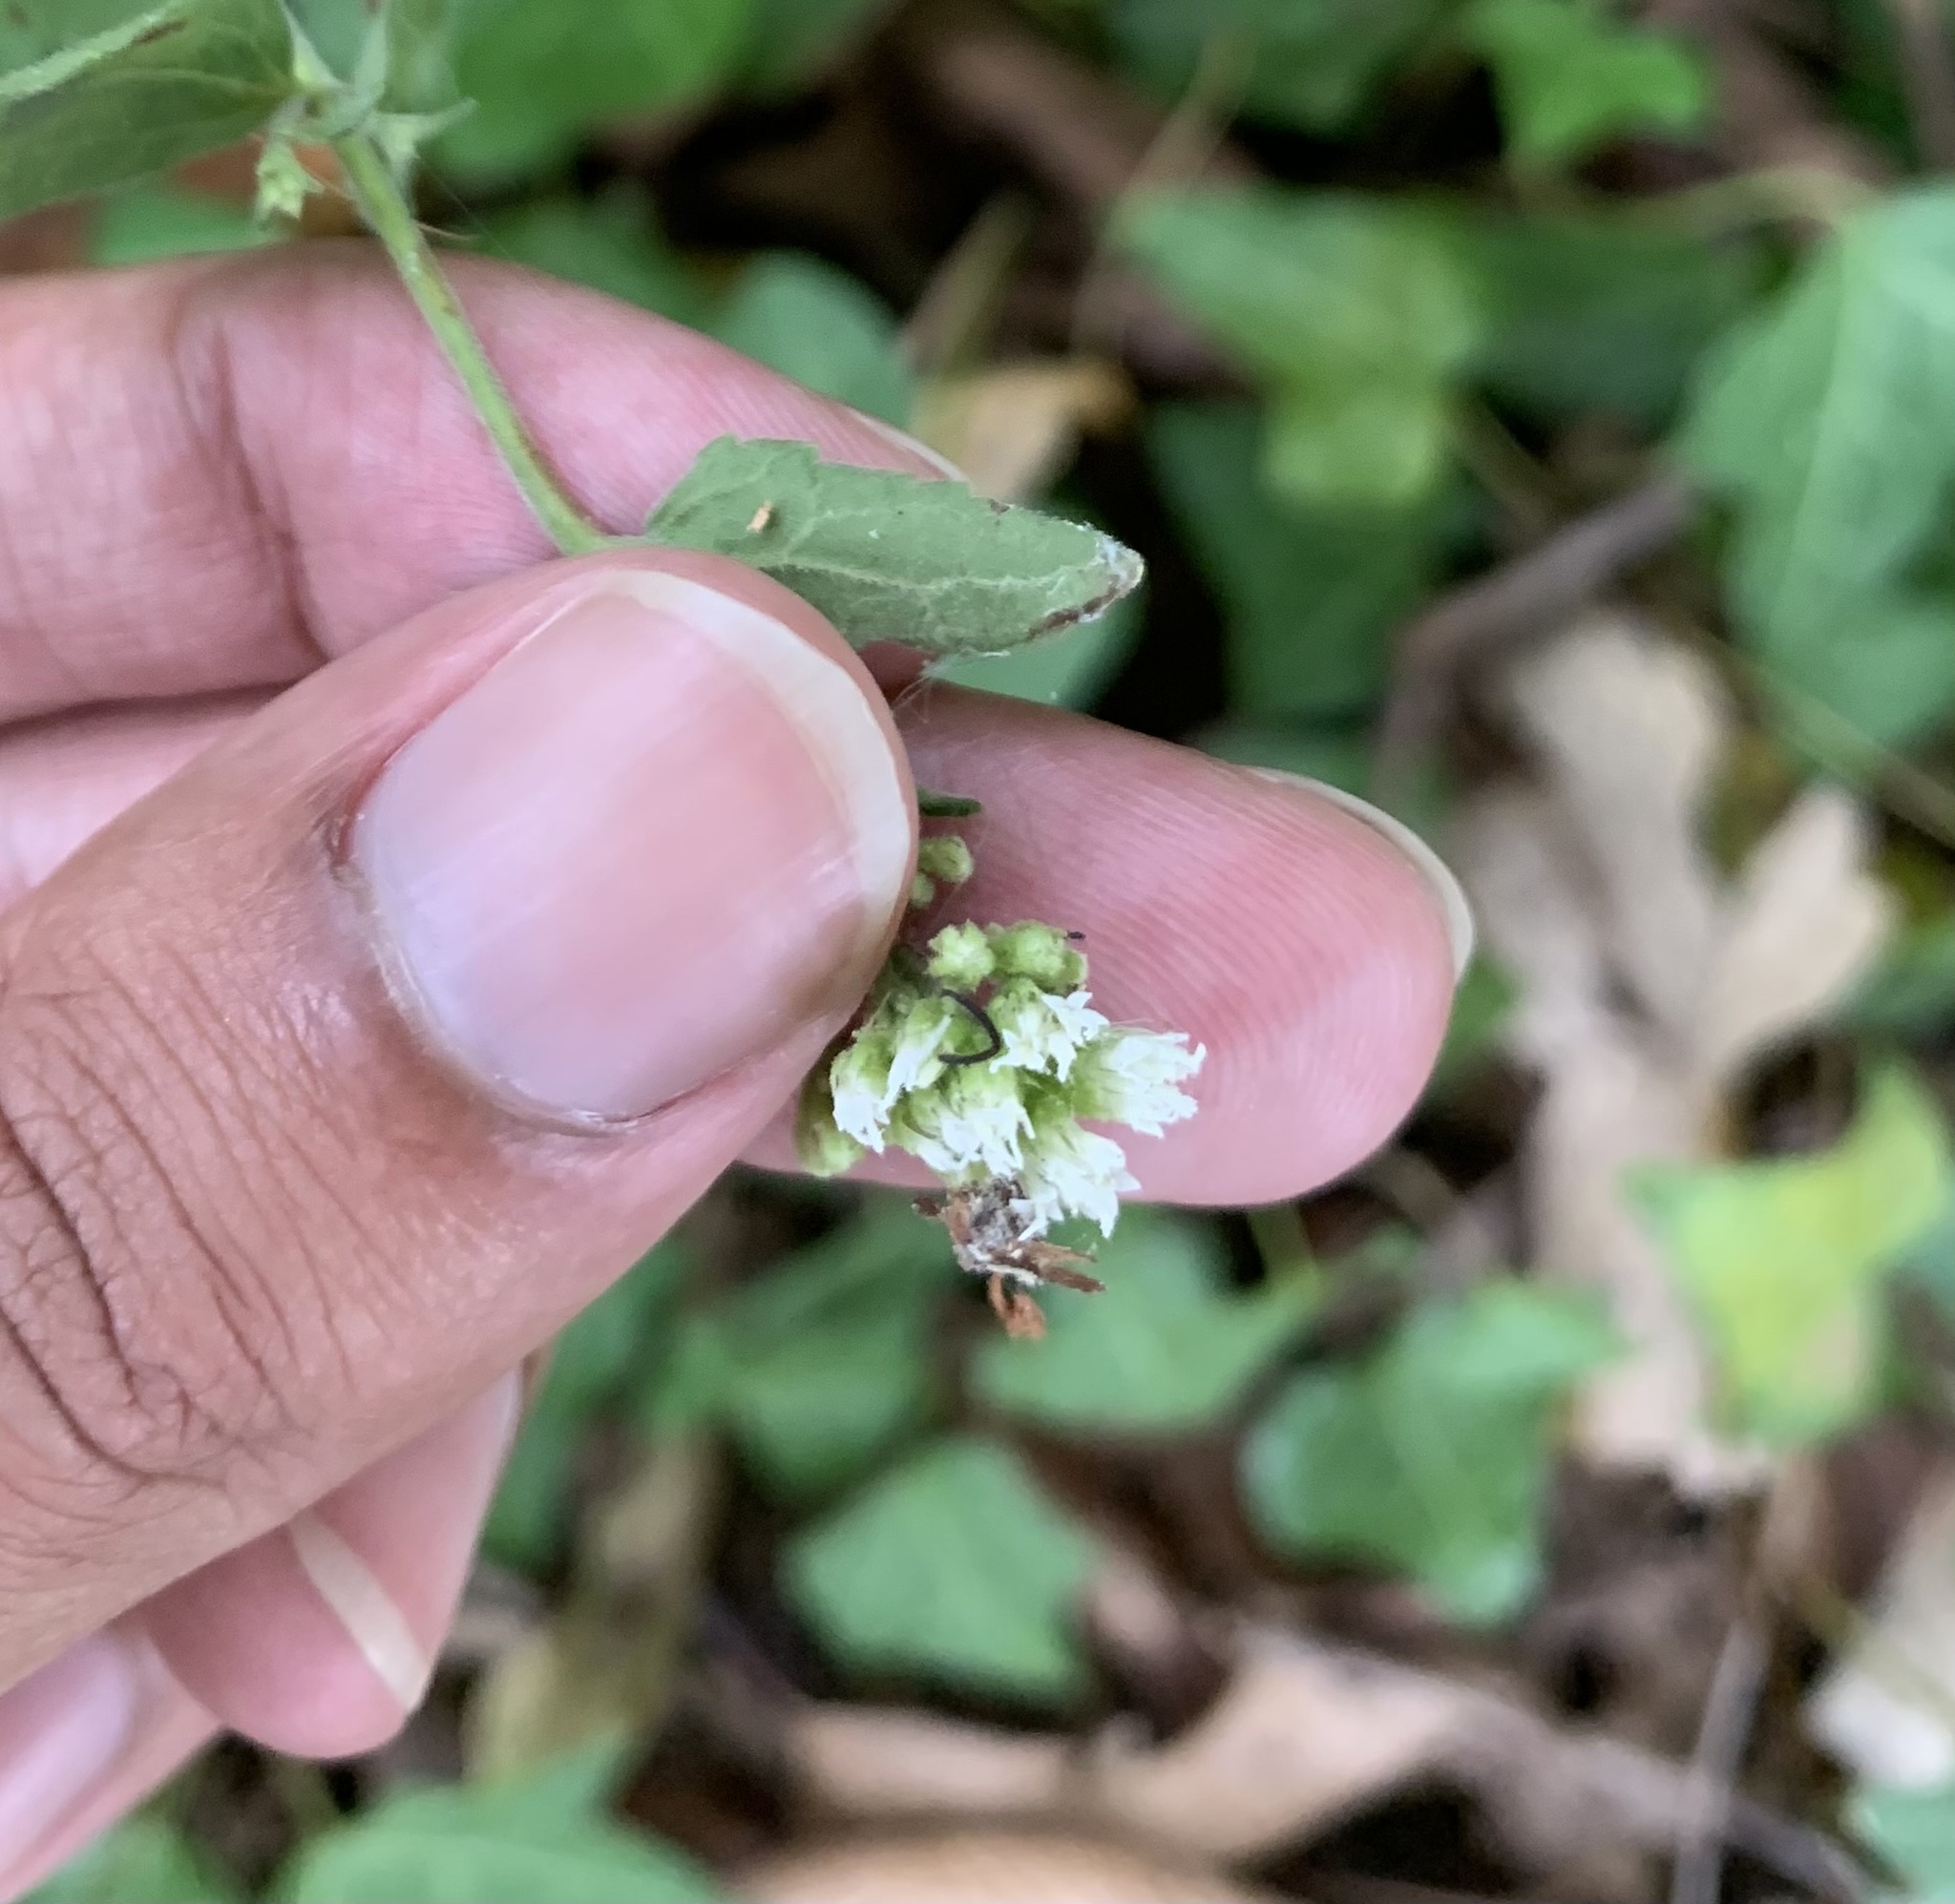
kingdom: Plantae
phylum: Tracheophyta
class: Magnoliopsida
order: Asterales
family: Asteraceae
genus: Ageratina
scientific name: Ageratina aromatica
